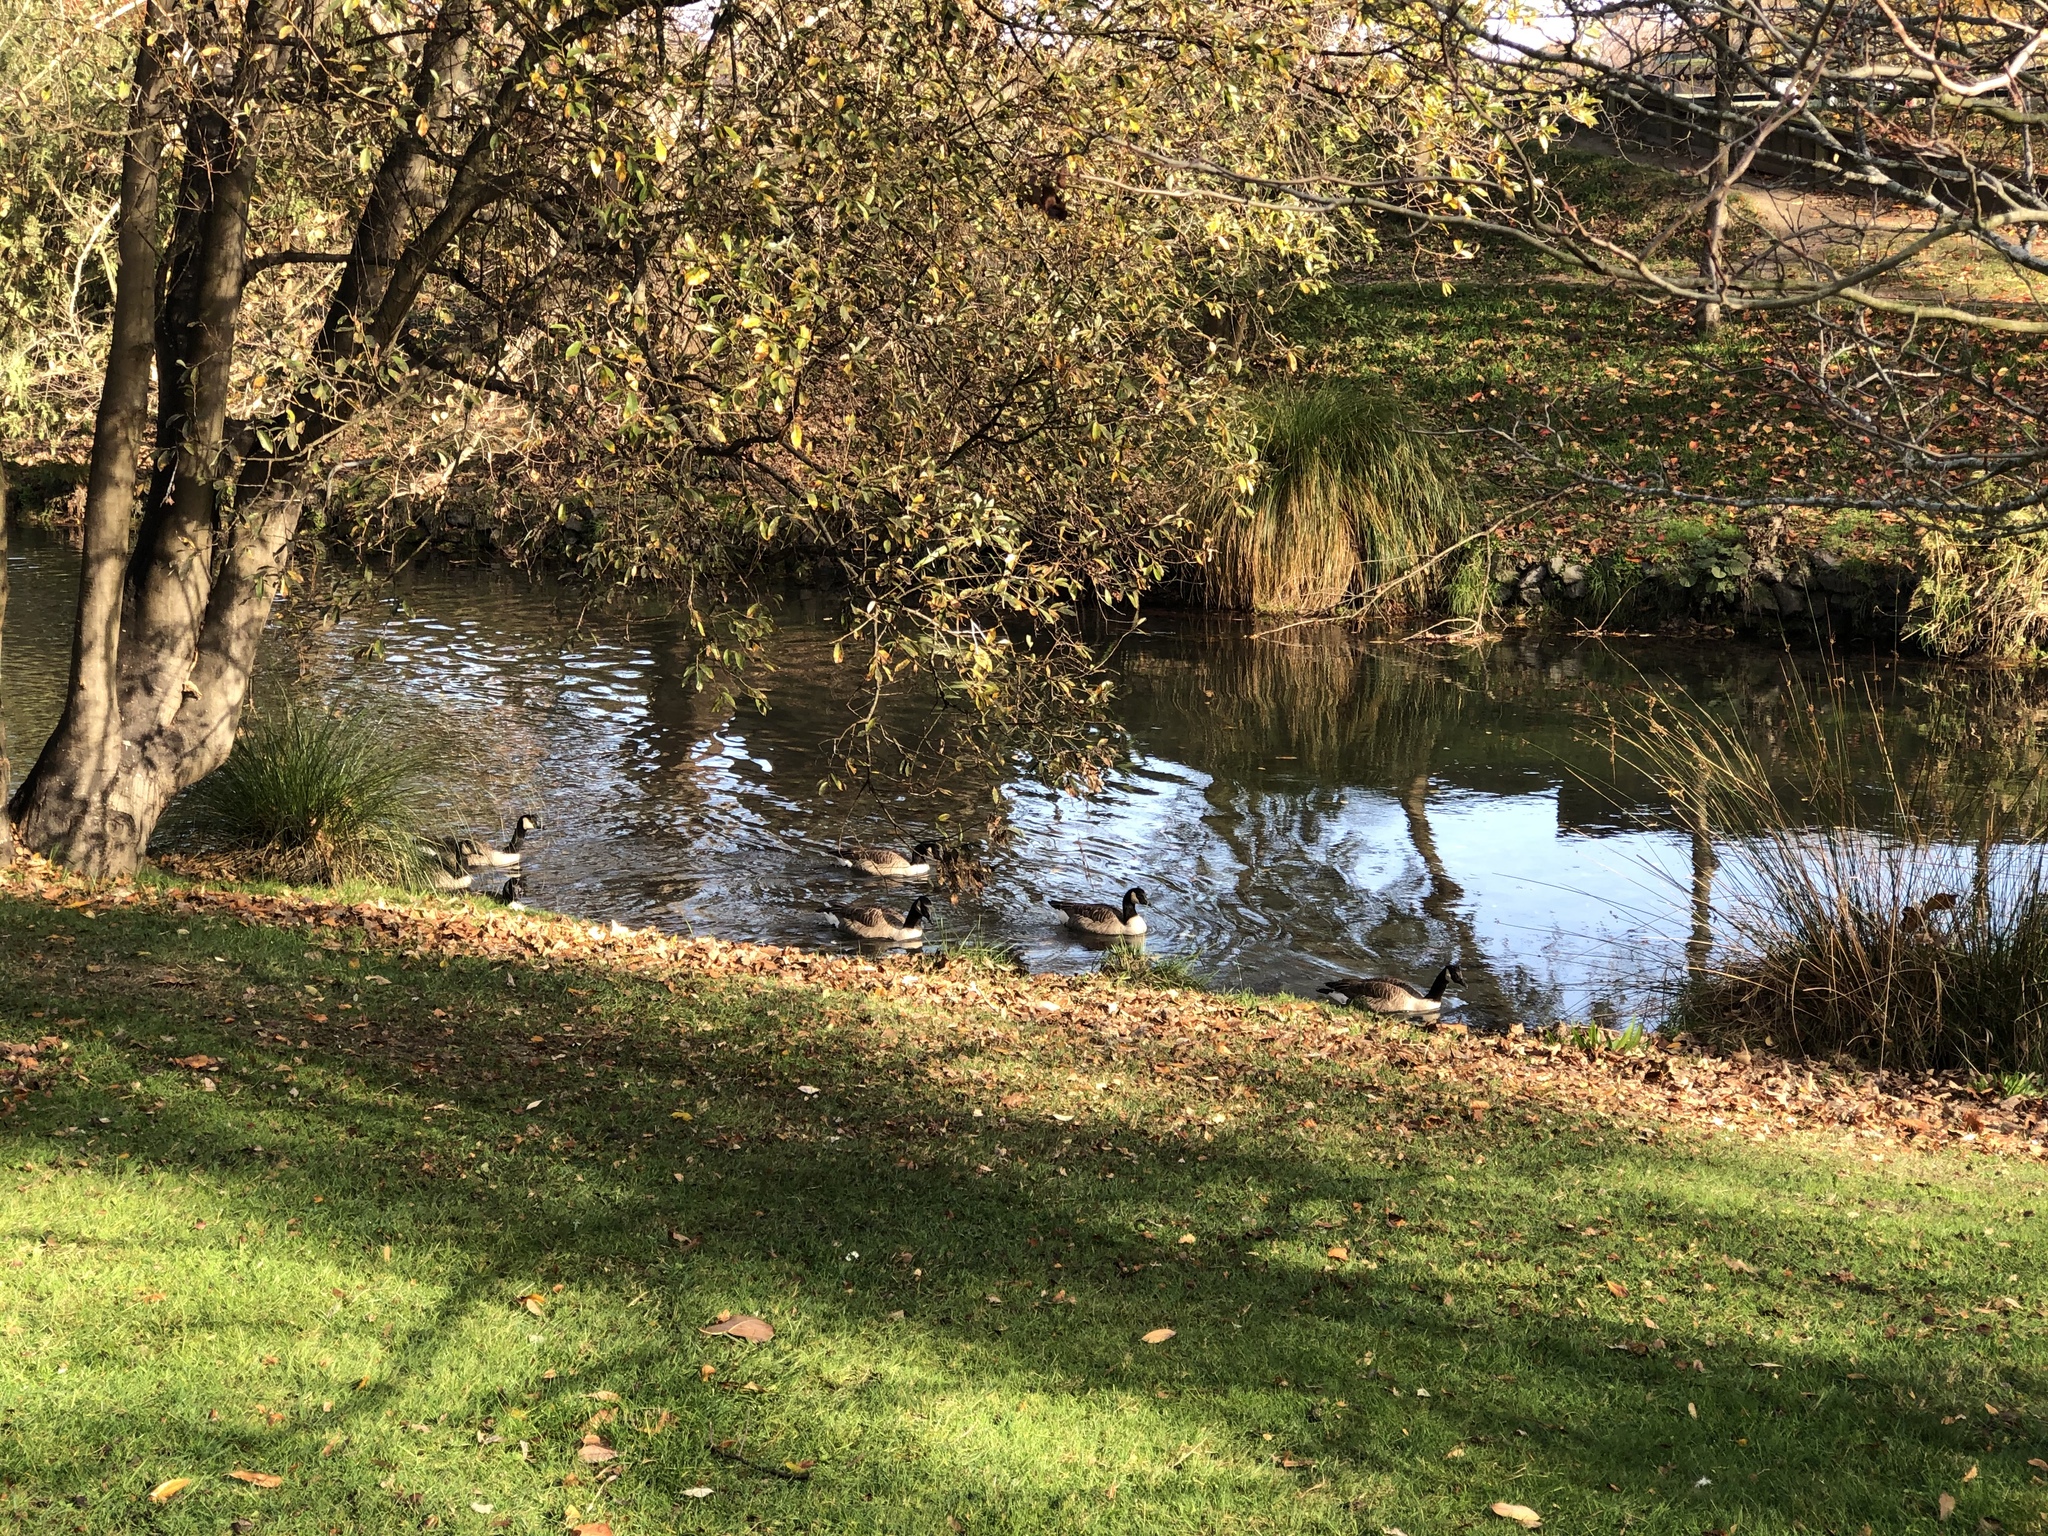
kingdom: Animalia
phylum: Chordata
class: Aves
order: Anseriformes
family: Anatidae
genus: Branta
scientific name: Branta canadensis
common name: Canada goose
